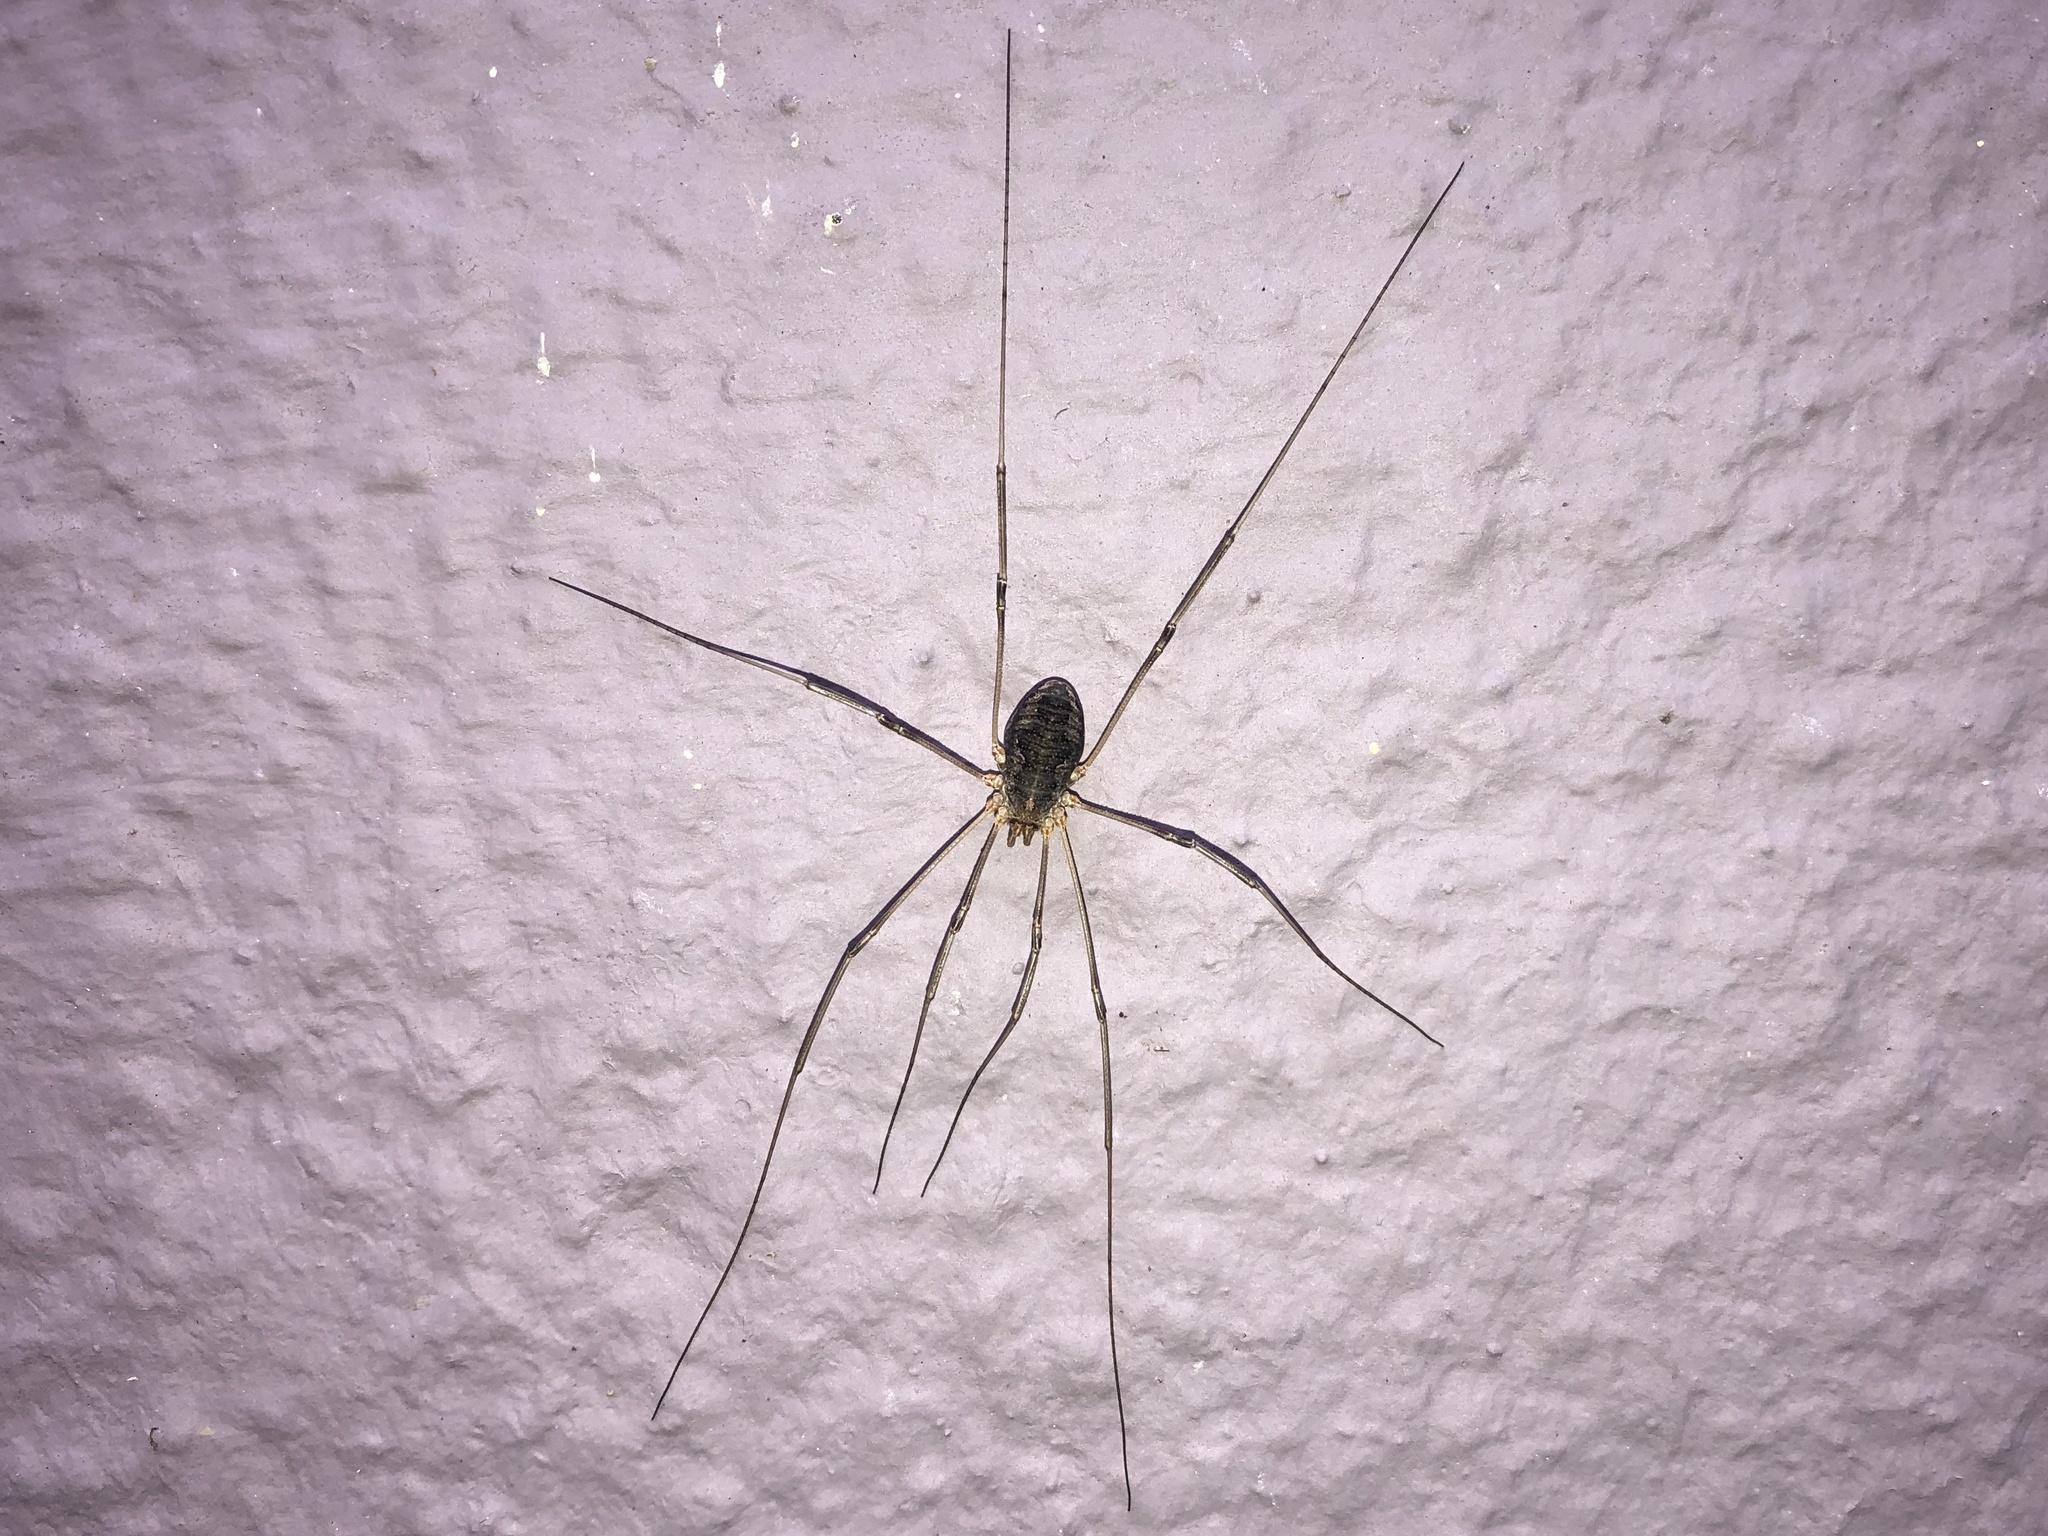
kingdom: Animalia
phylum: Arthropoda
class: Arachnida
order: Opiliones
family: Phalangiidae
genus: Phalangium
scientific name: Phalangium opilio
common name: Daddy longleg
